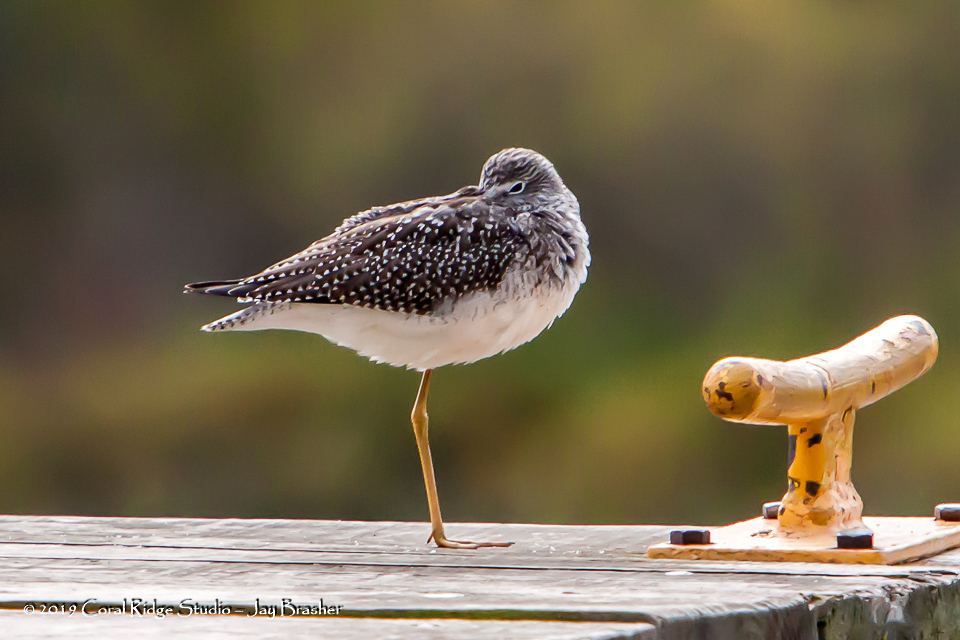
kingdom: Animalia
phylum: Chordata
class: Aves
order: Charadriiformes
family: Scolopacidae
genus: Tringa
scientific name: Tringa melanoleuca
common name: Greater yellowlegs
